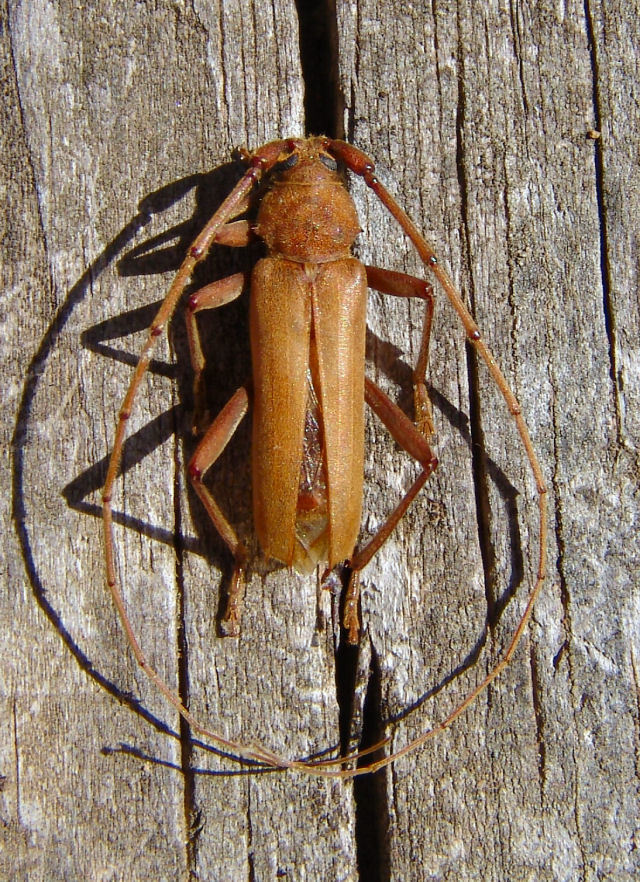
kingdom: Animalia
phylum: Arthropoda
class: Insecta
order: Coleoptera
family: Cerambycidae
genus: Knulliana
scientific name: Knulliana cincta
